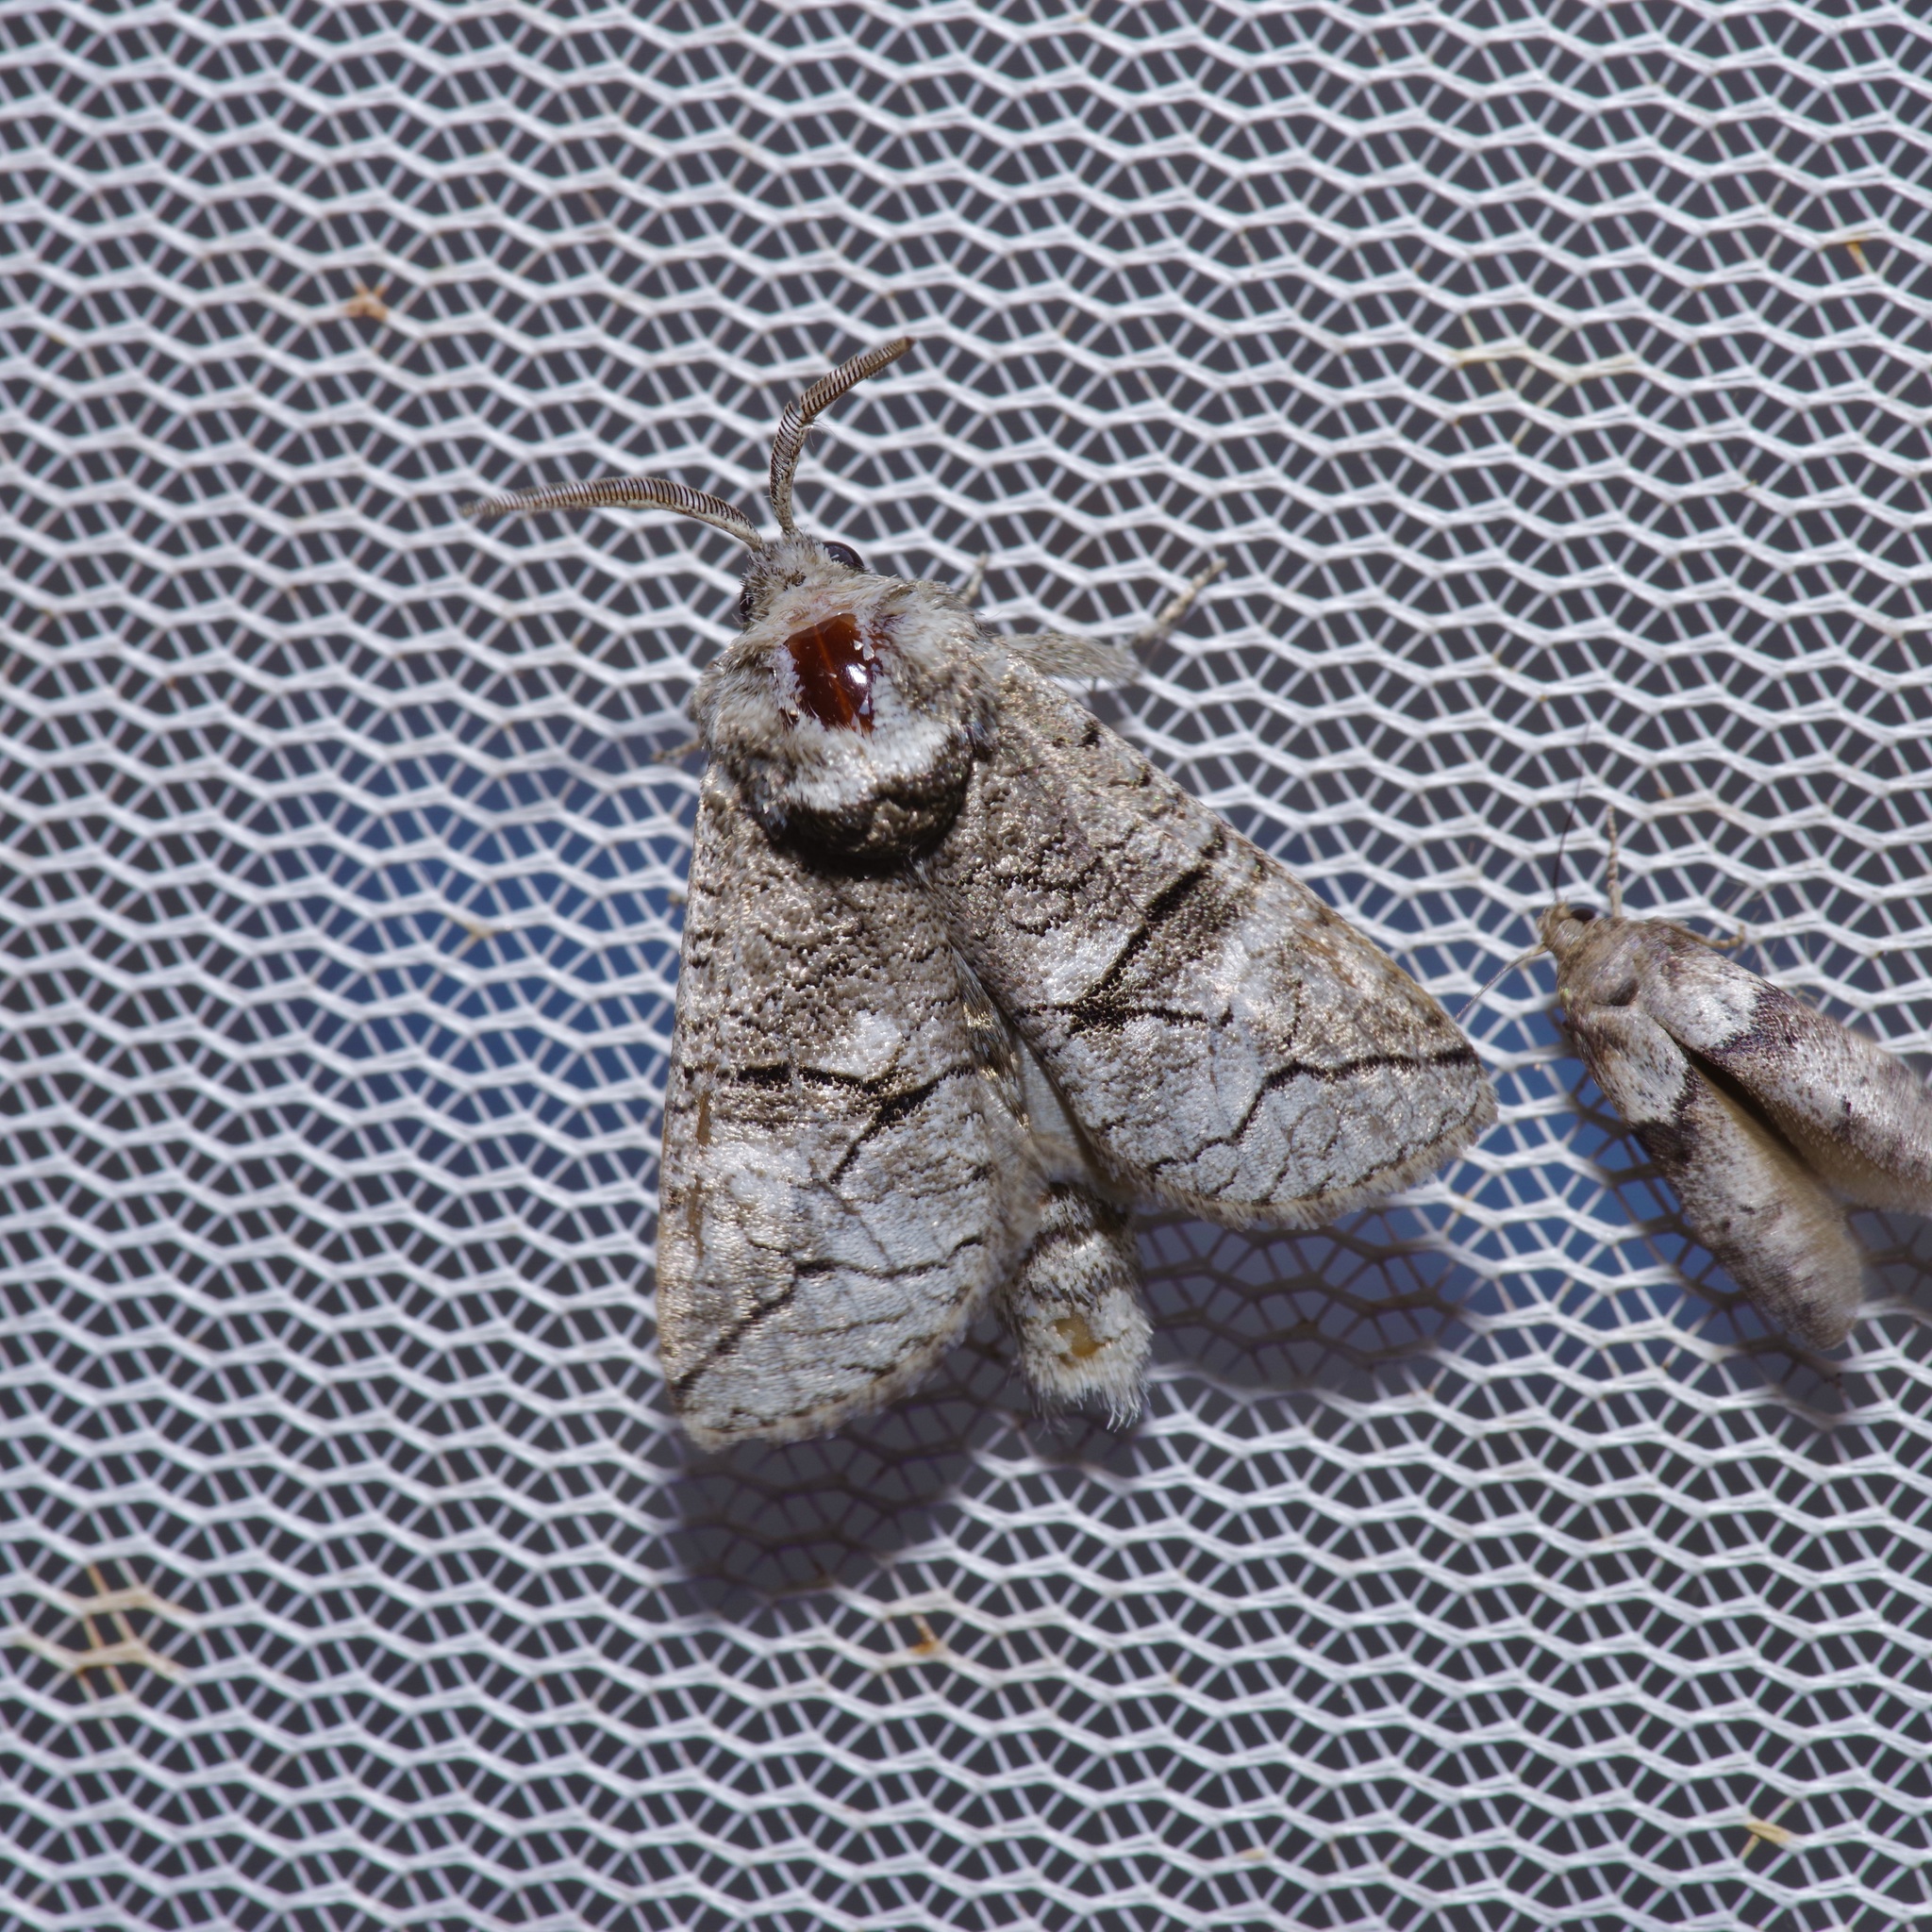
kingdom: Animalia
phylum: Arthropoda
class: Insecta
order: Lepidoptera
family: Cossidae
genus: Fania
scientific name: Fania nanus
